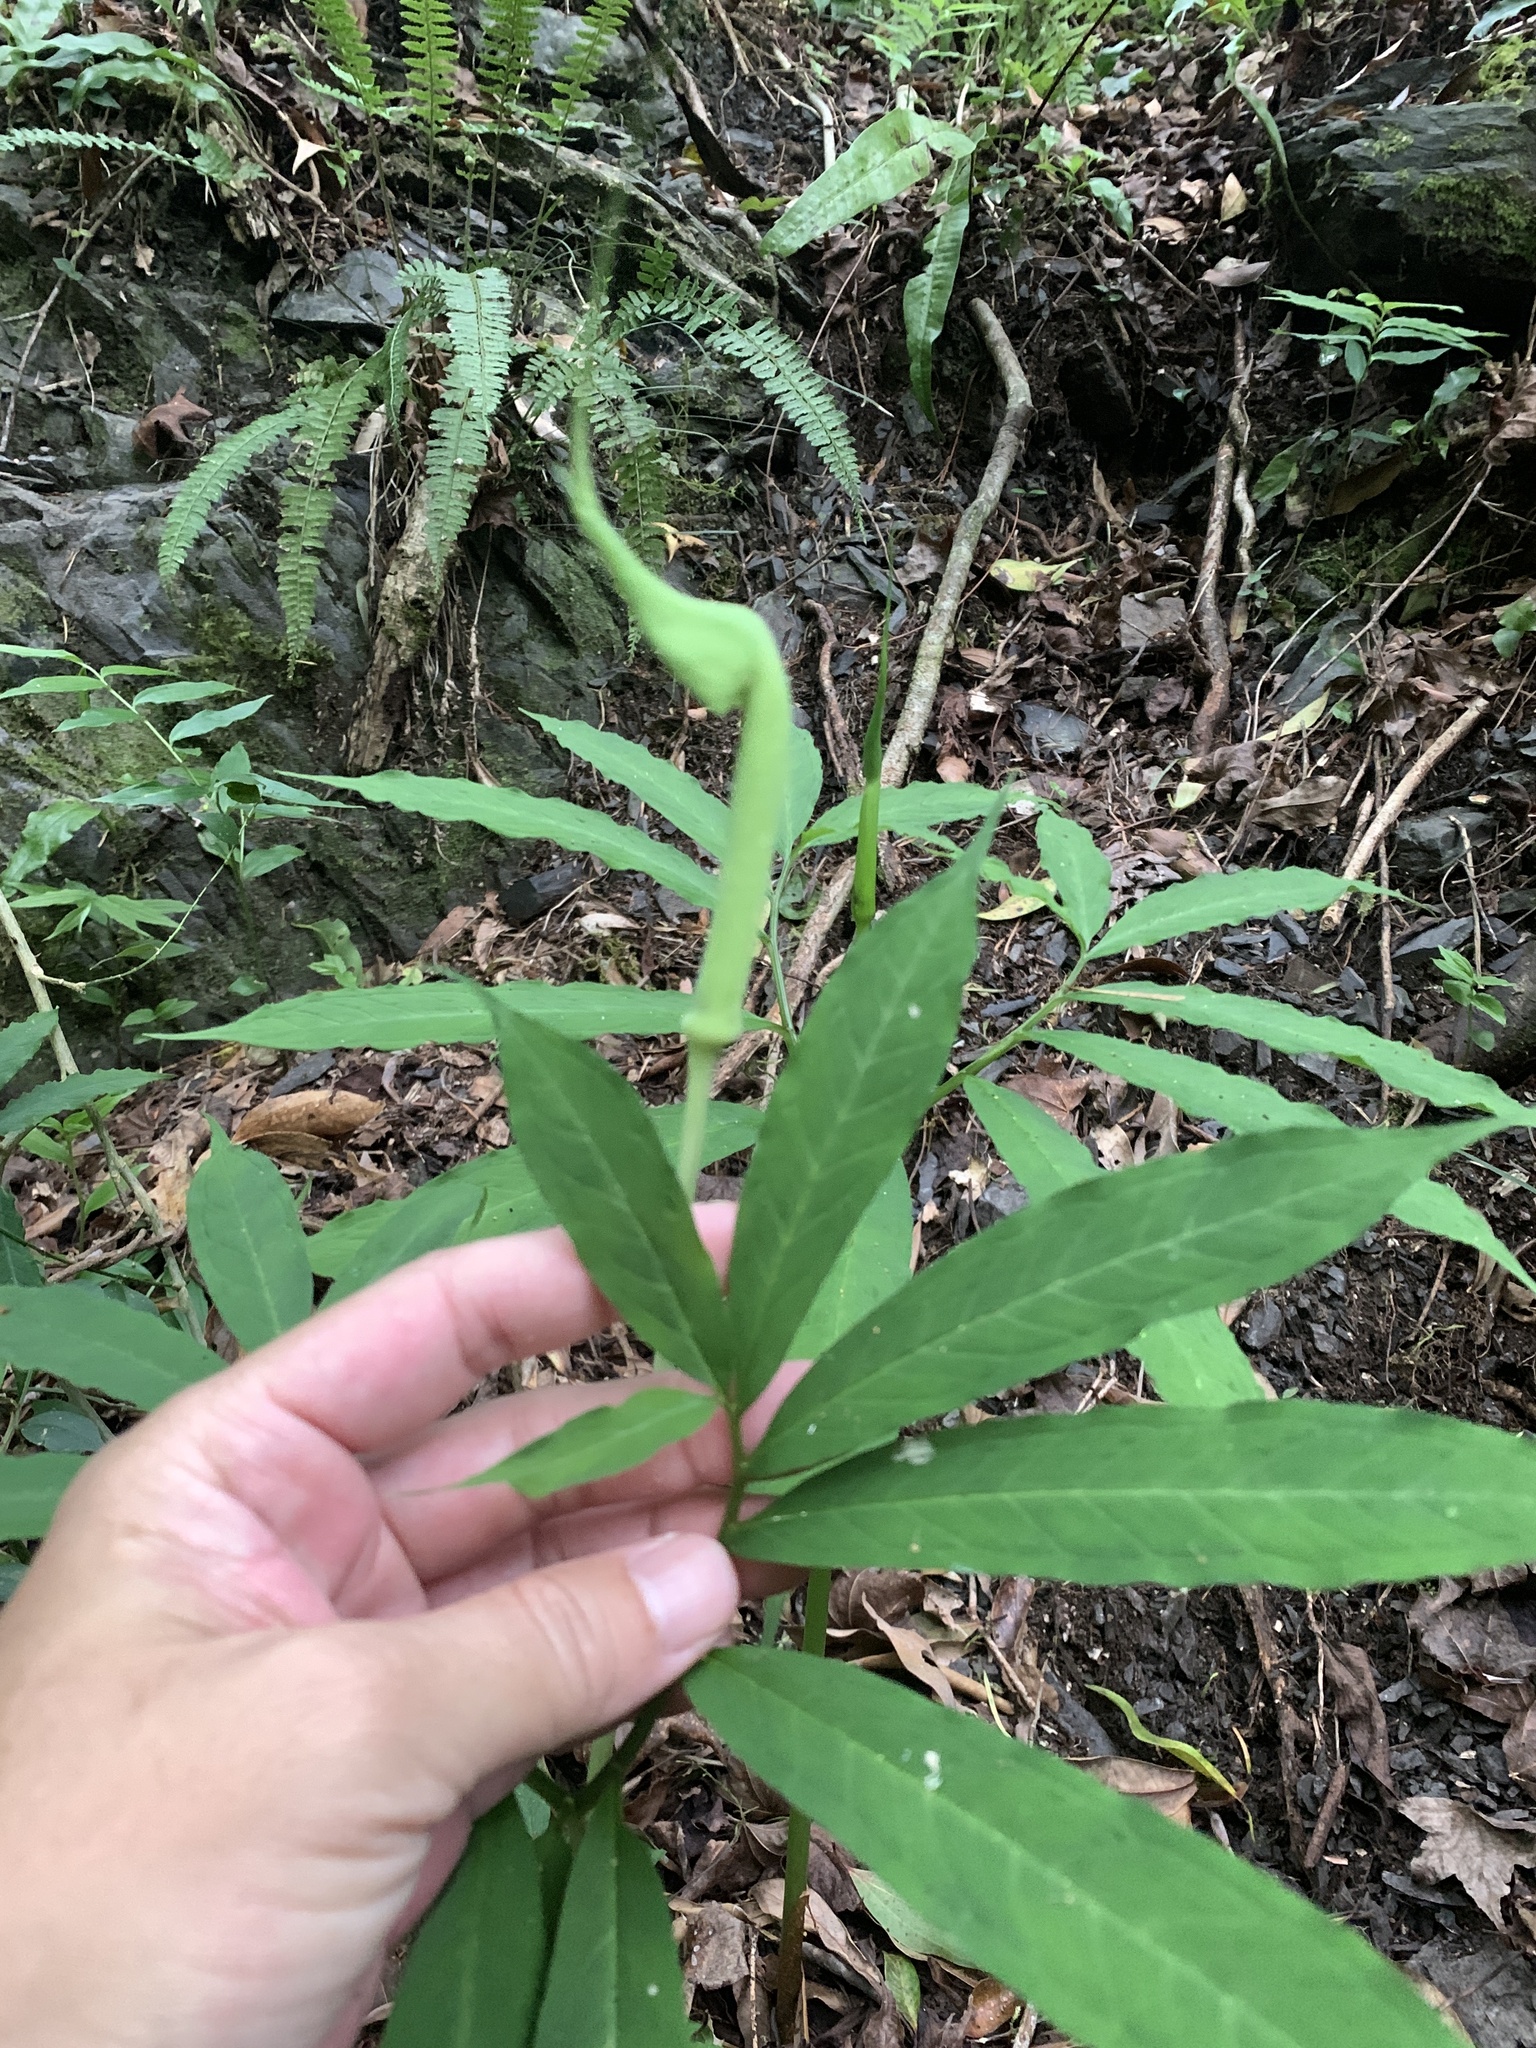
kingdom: Plantae
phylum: Tracheophyta
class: Liliopsida
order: Alismatales
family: Araceae
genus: Arisaema
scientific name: Arisaema heterophyllum
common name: Dancing crane cobra lily
